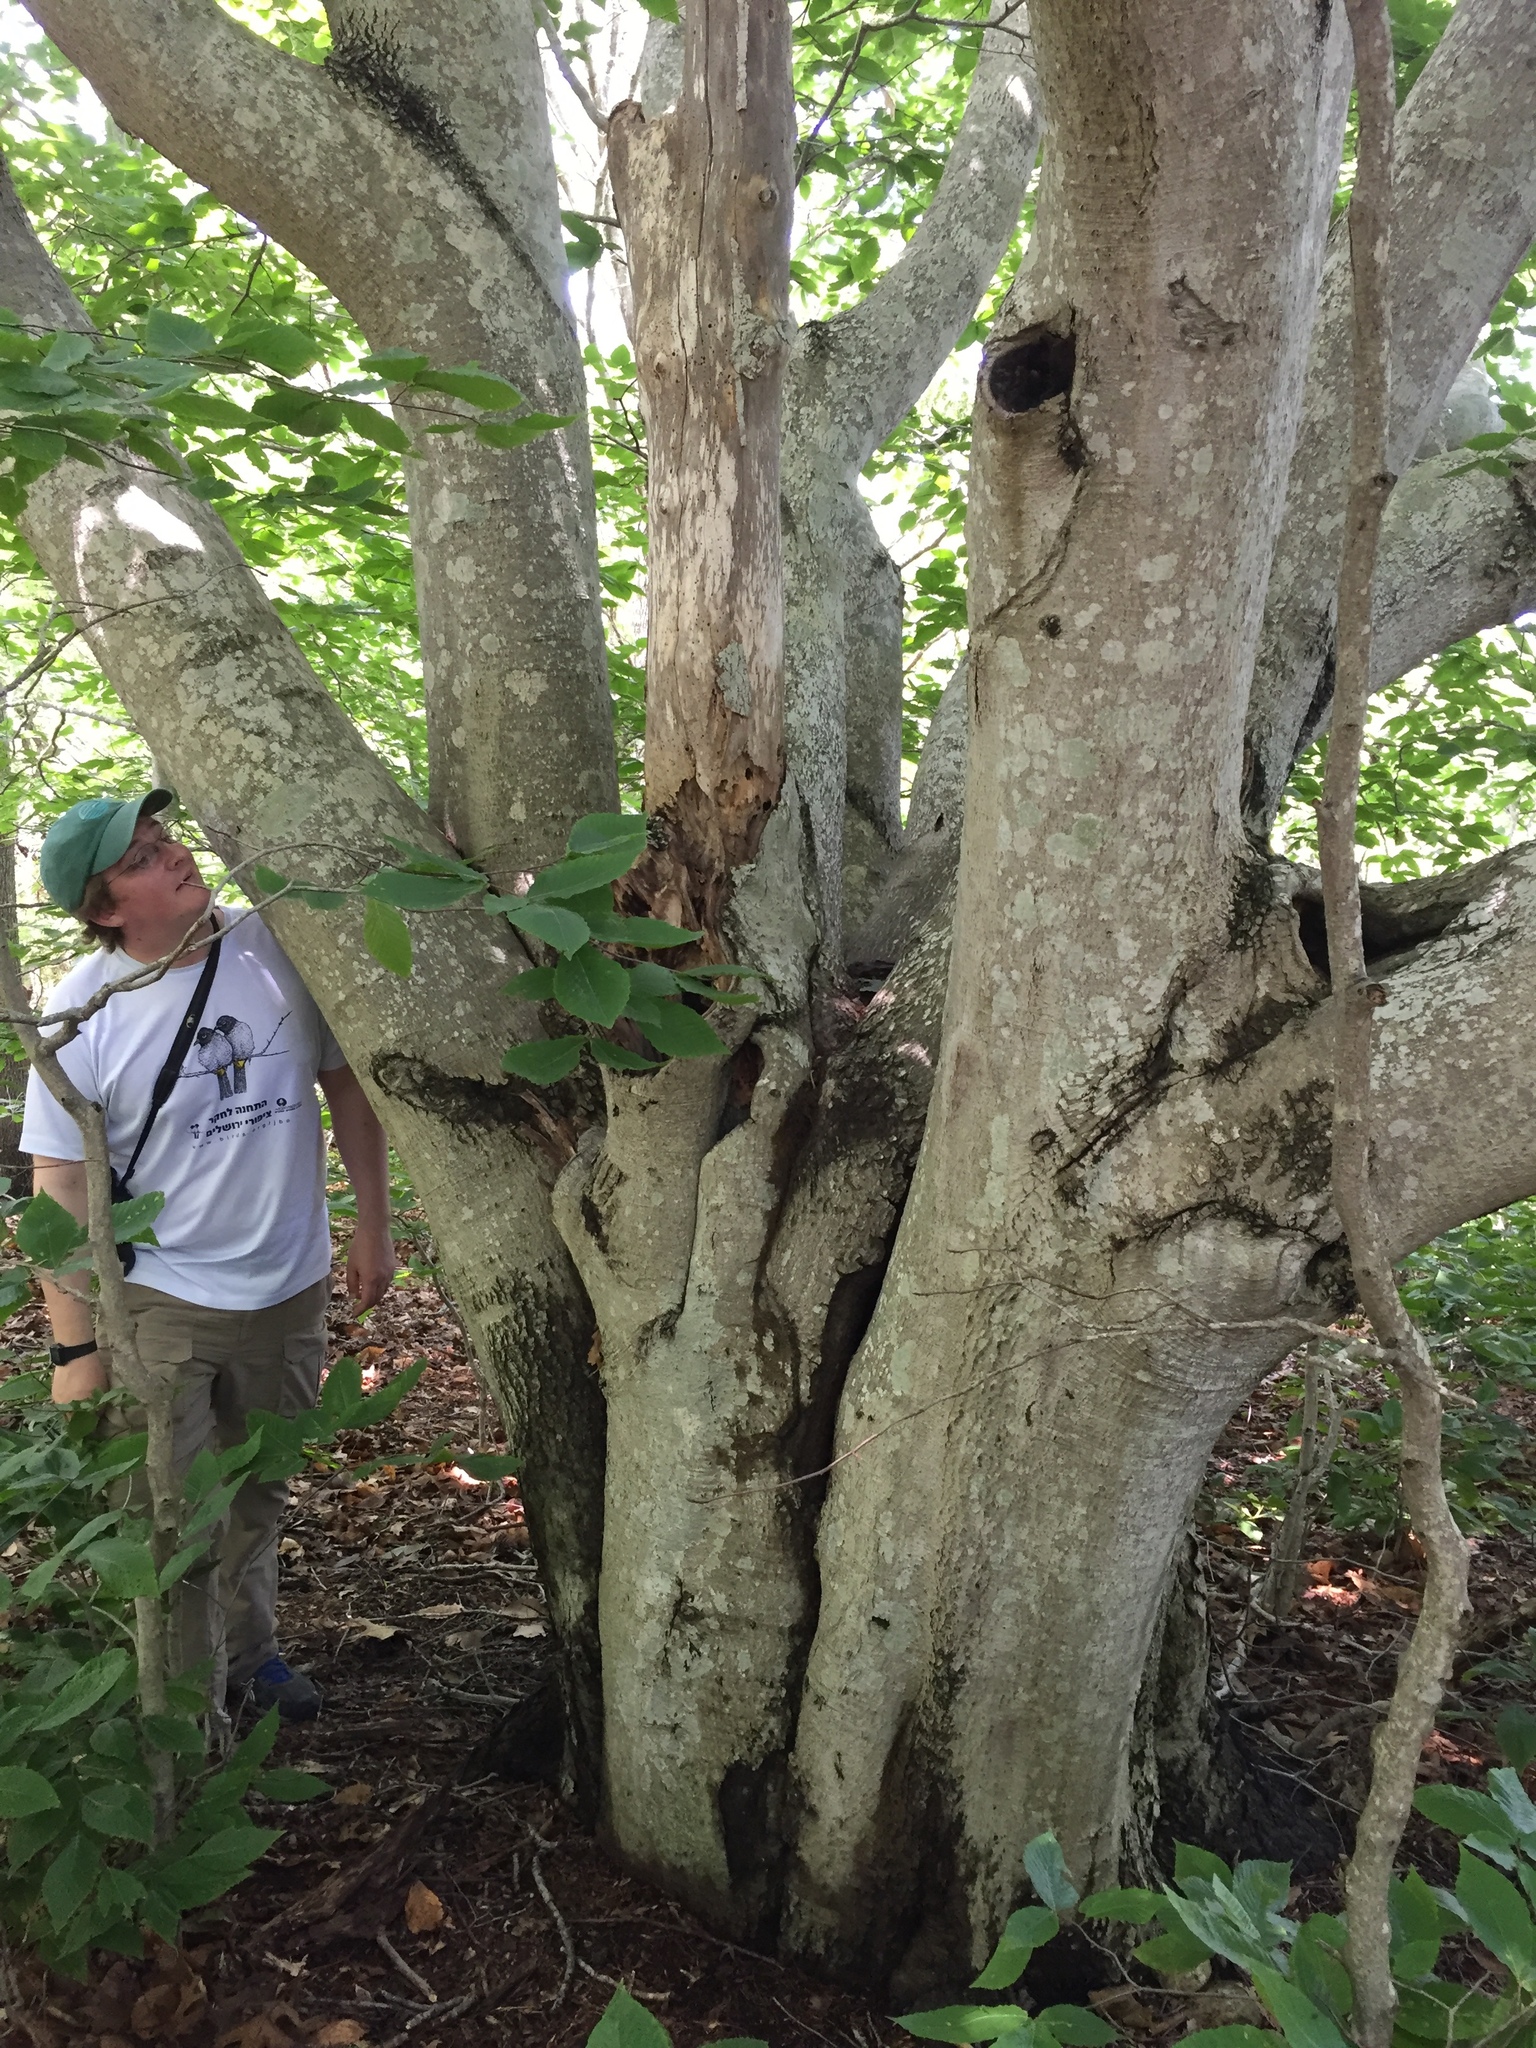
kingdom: Plantae
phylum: Tracheophyta
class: Magnoliopsida
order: Fagales
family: Fagaceae
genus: Fagus
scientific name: Fagus grandifolia
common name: American beech
